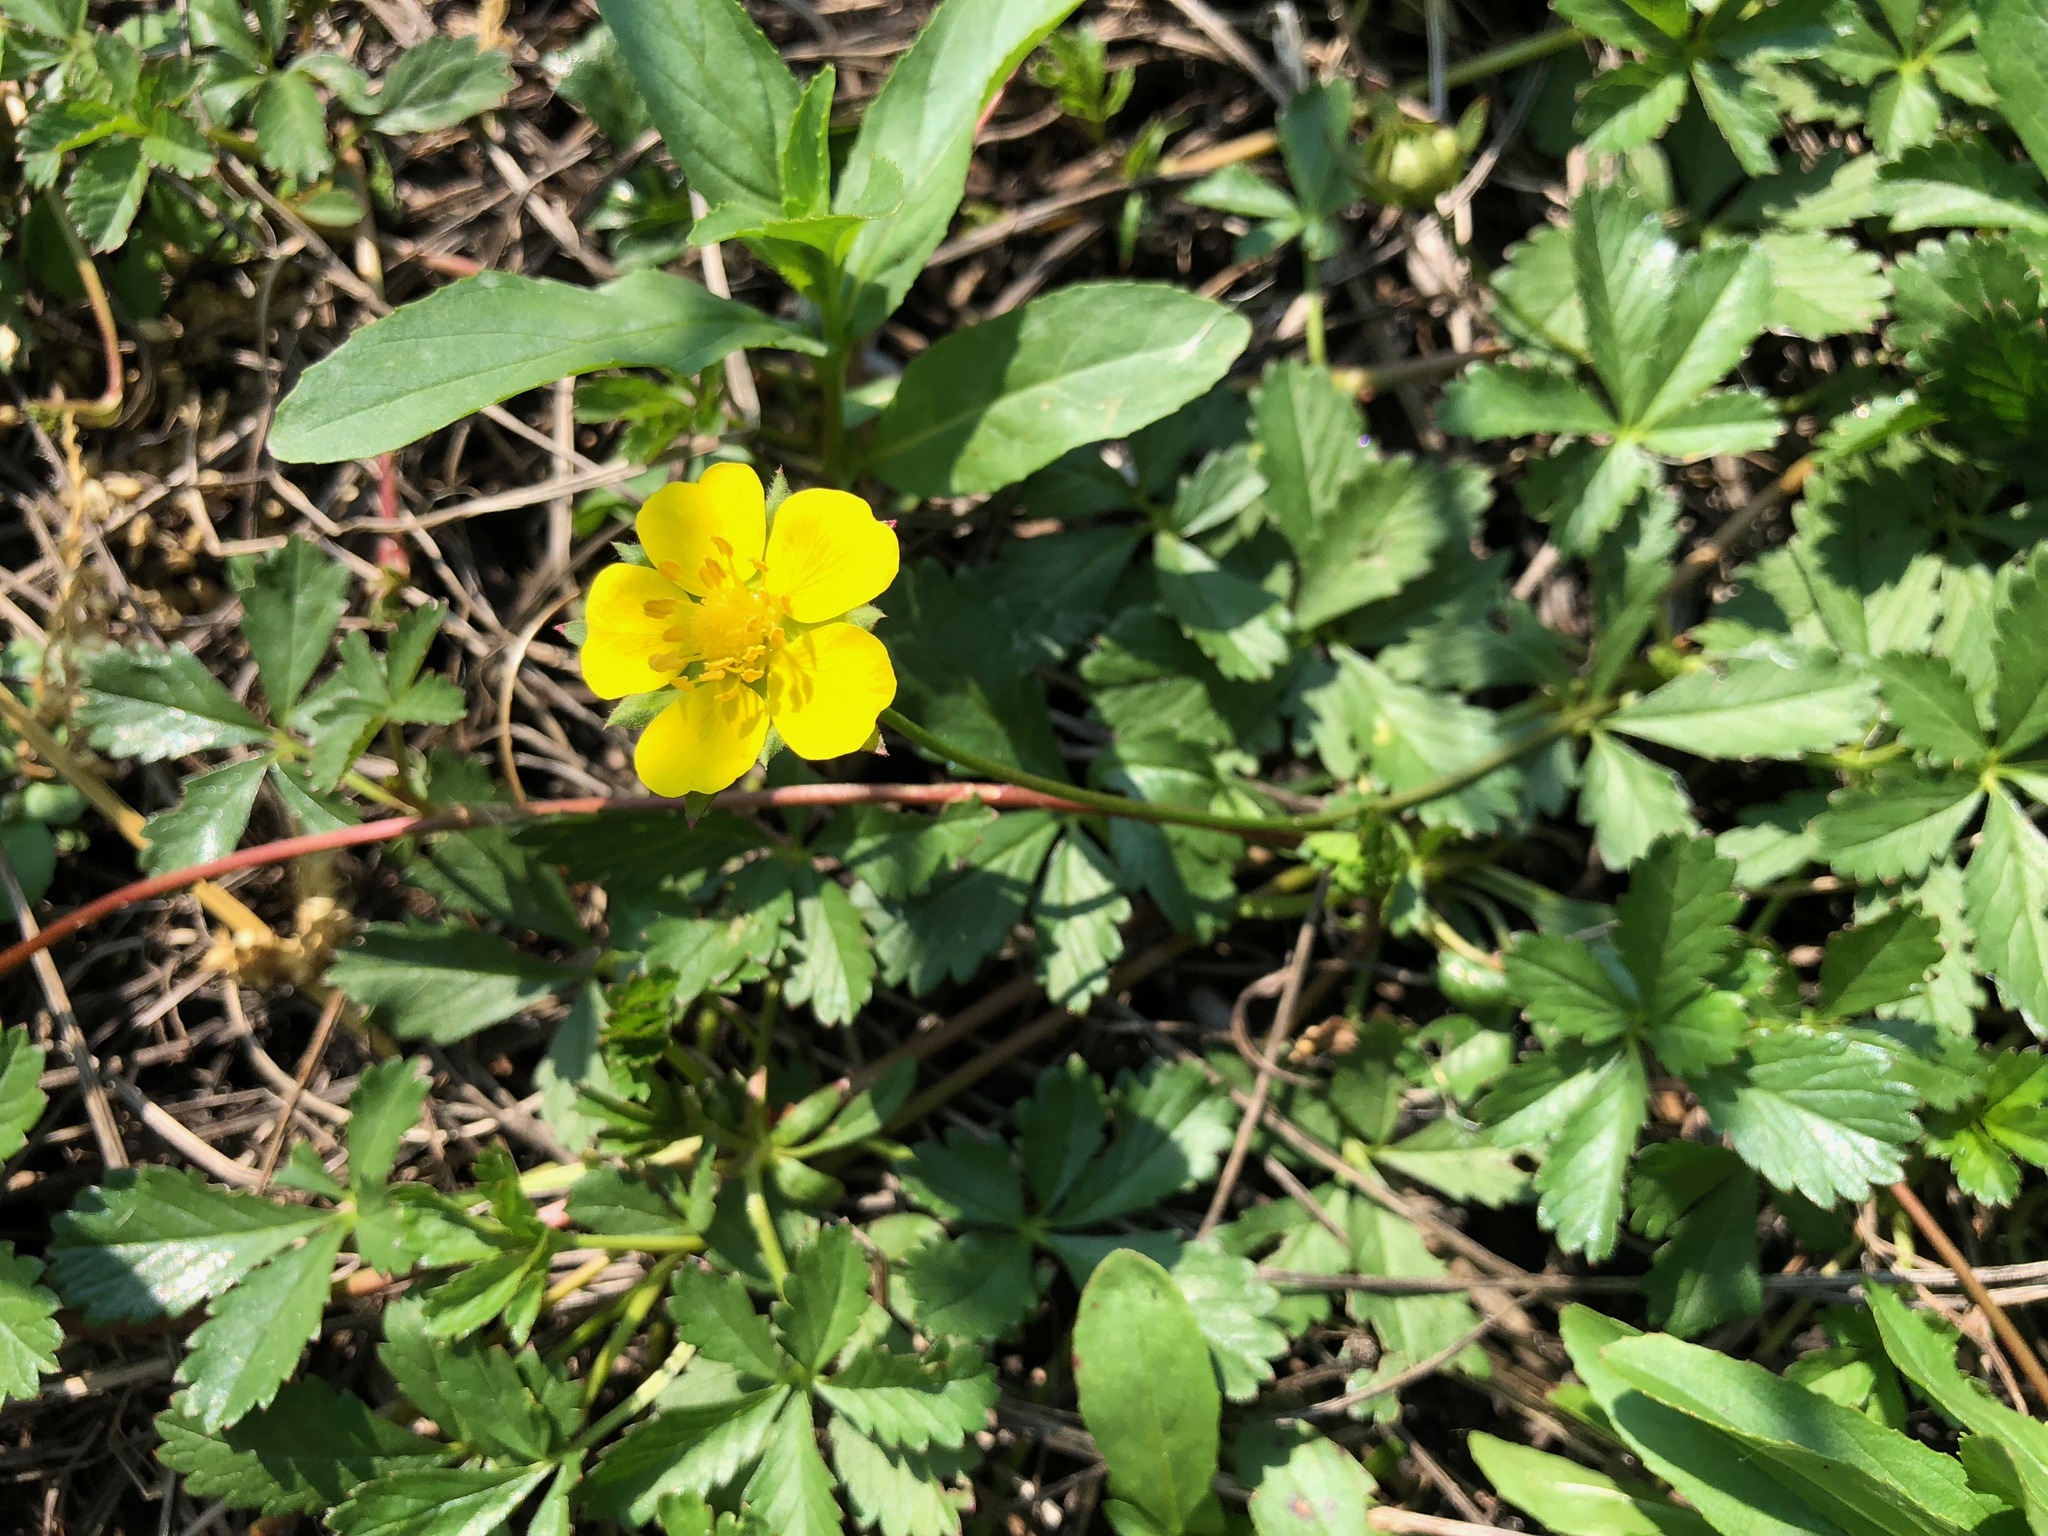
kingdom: Plantae
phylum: Tracheophyta
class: Magnoliopsida
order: Rosales
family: Rosaceae
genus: Potentilla
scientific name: Potentilla reptans
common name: Creeping cinquefoil
